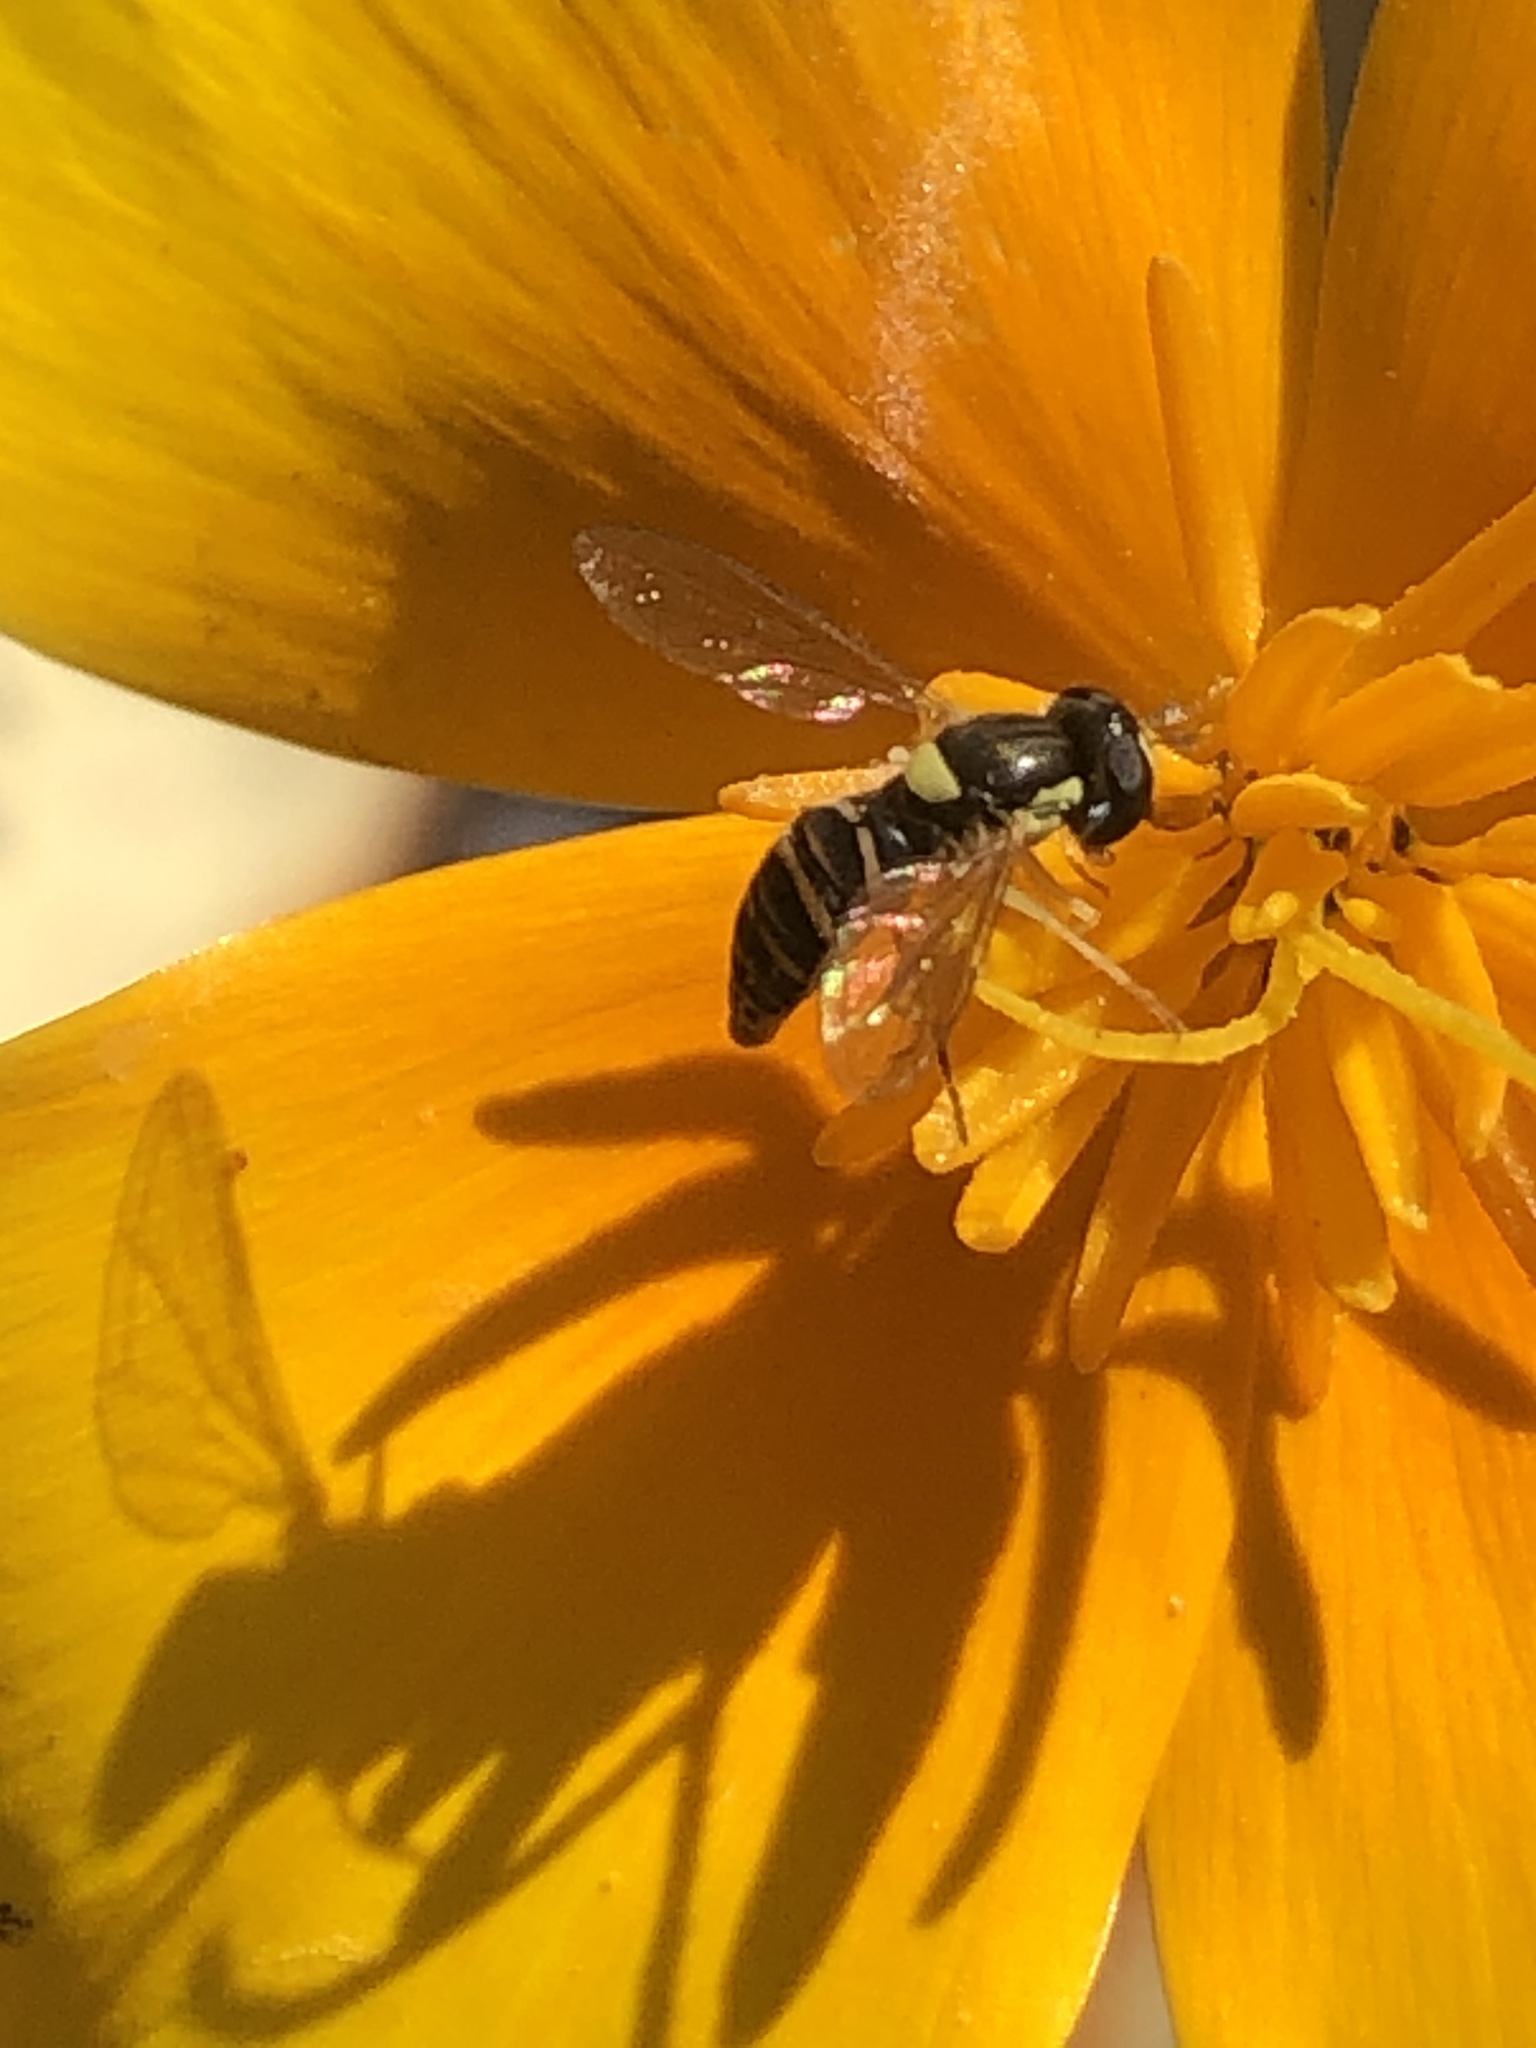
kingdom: Animalia
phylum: Arthropoda
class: Insecta
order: Diptera
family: Syrphidae
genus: Sphaerophoria
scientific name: Sphaerophoria sulphuripes
